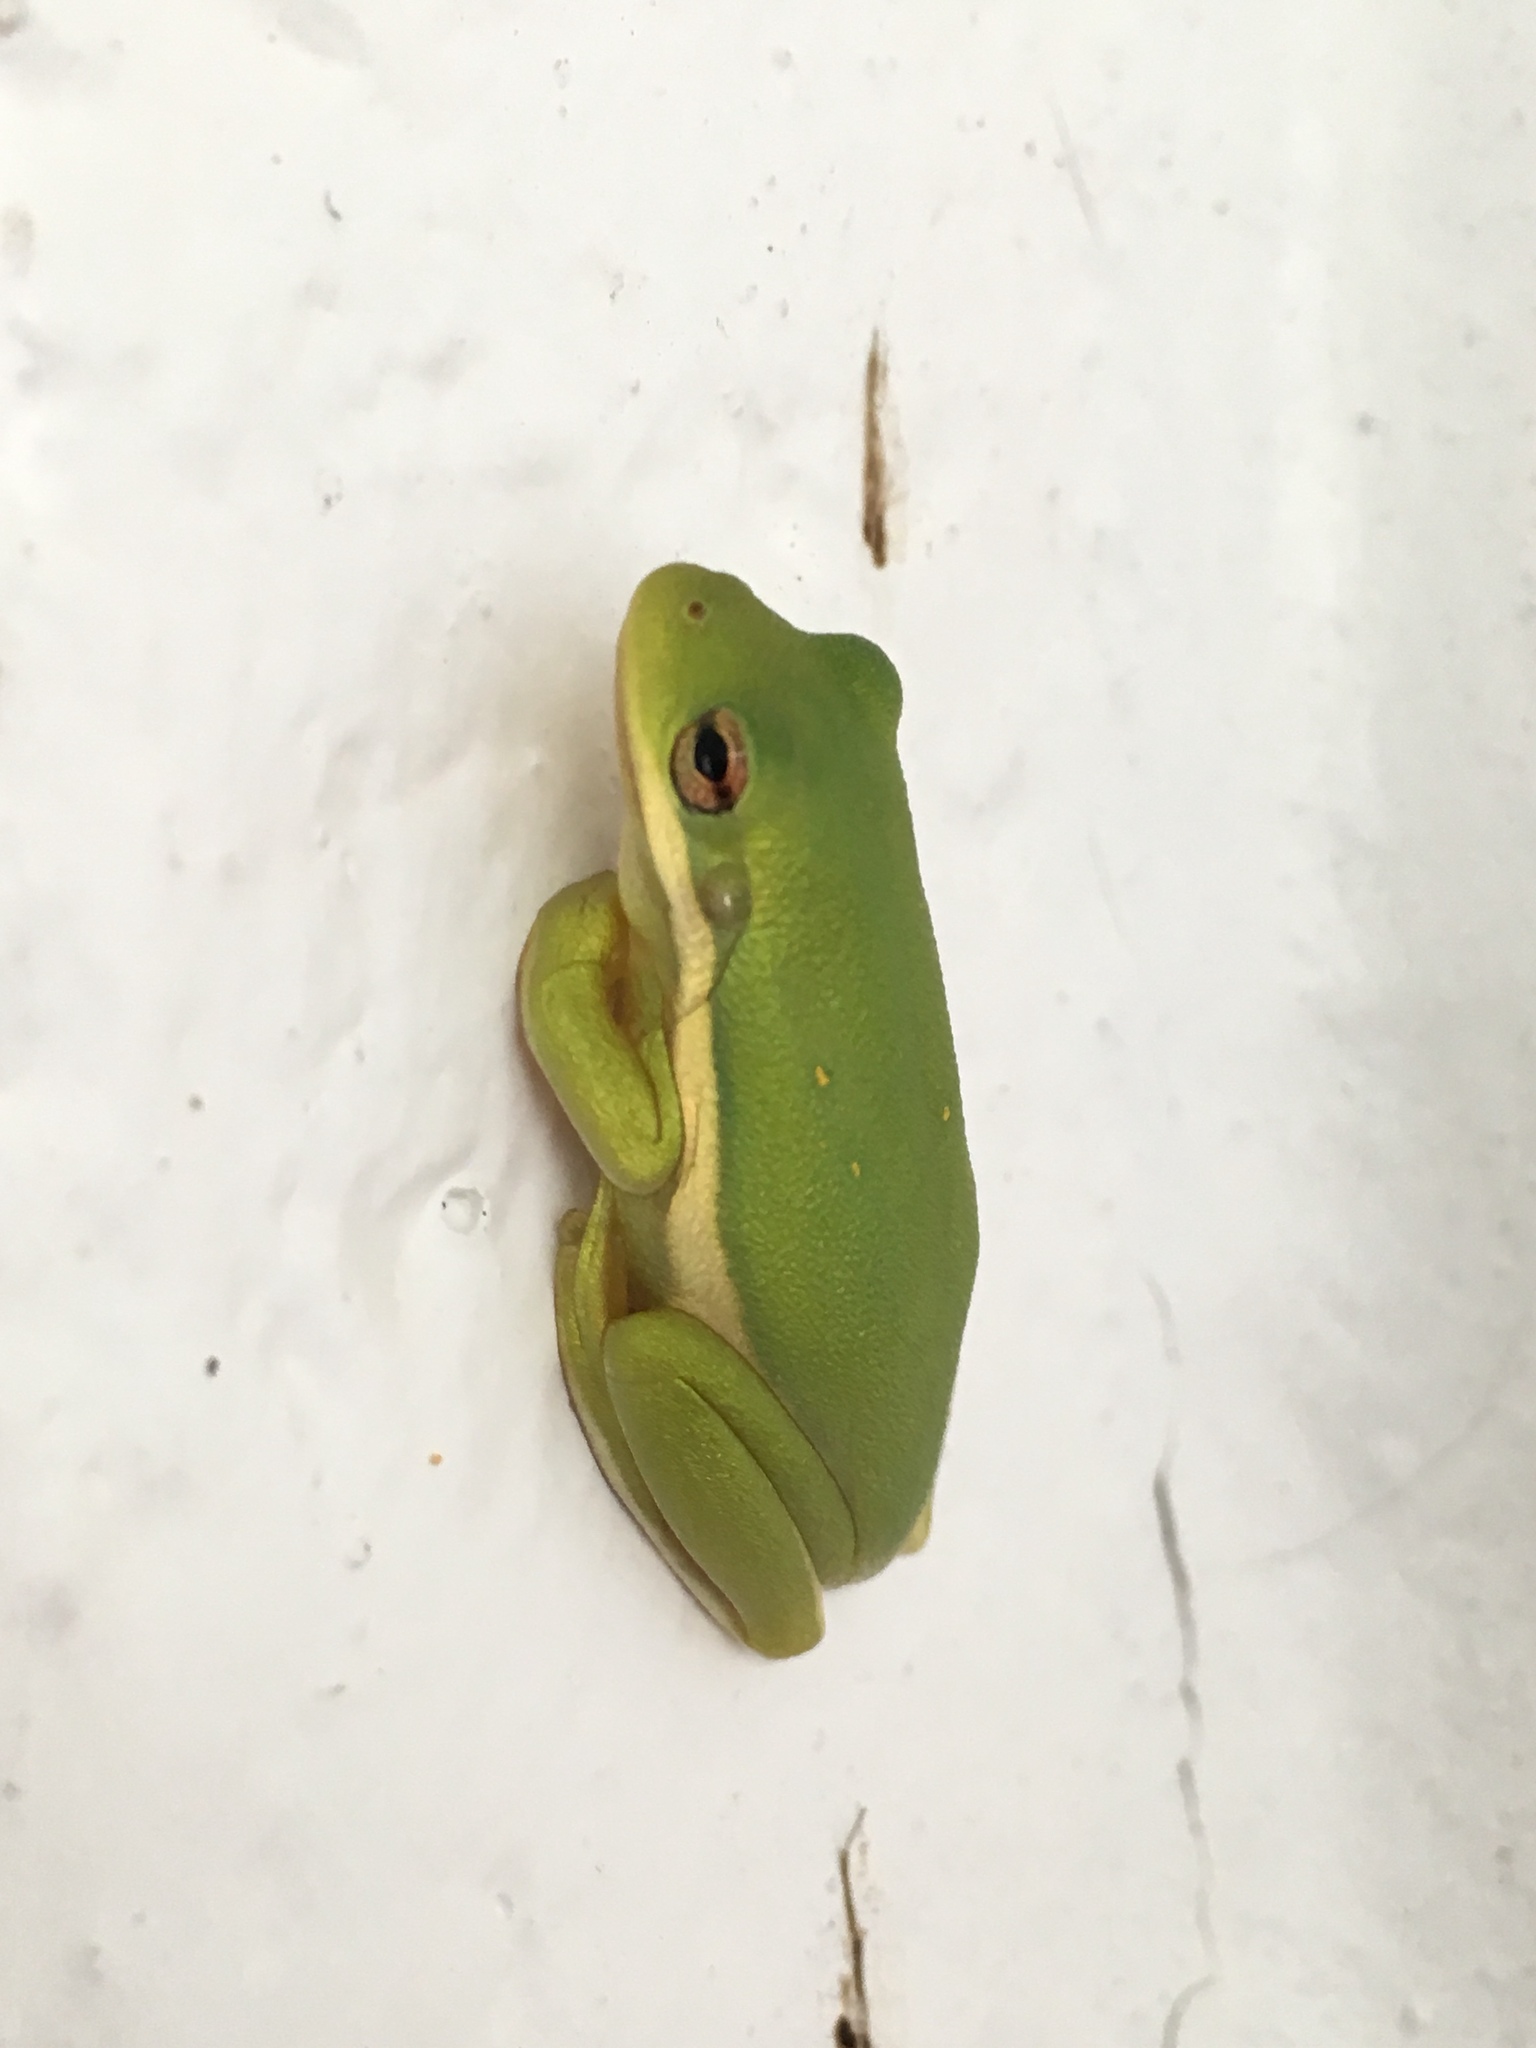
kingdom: Animalia
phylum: Chordata
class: Amphibia
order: Anura
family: Hylidae
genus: Dryophytes
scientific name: Dryophytes cinereus
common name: Green treefrog
